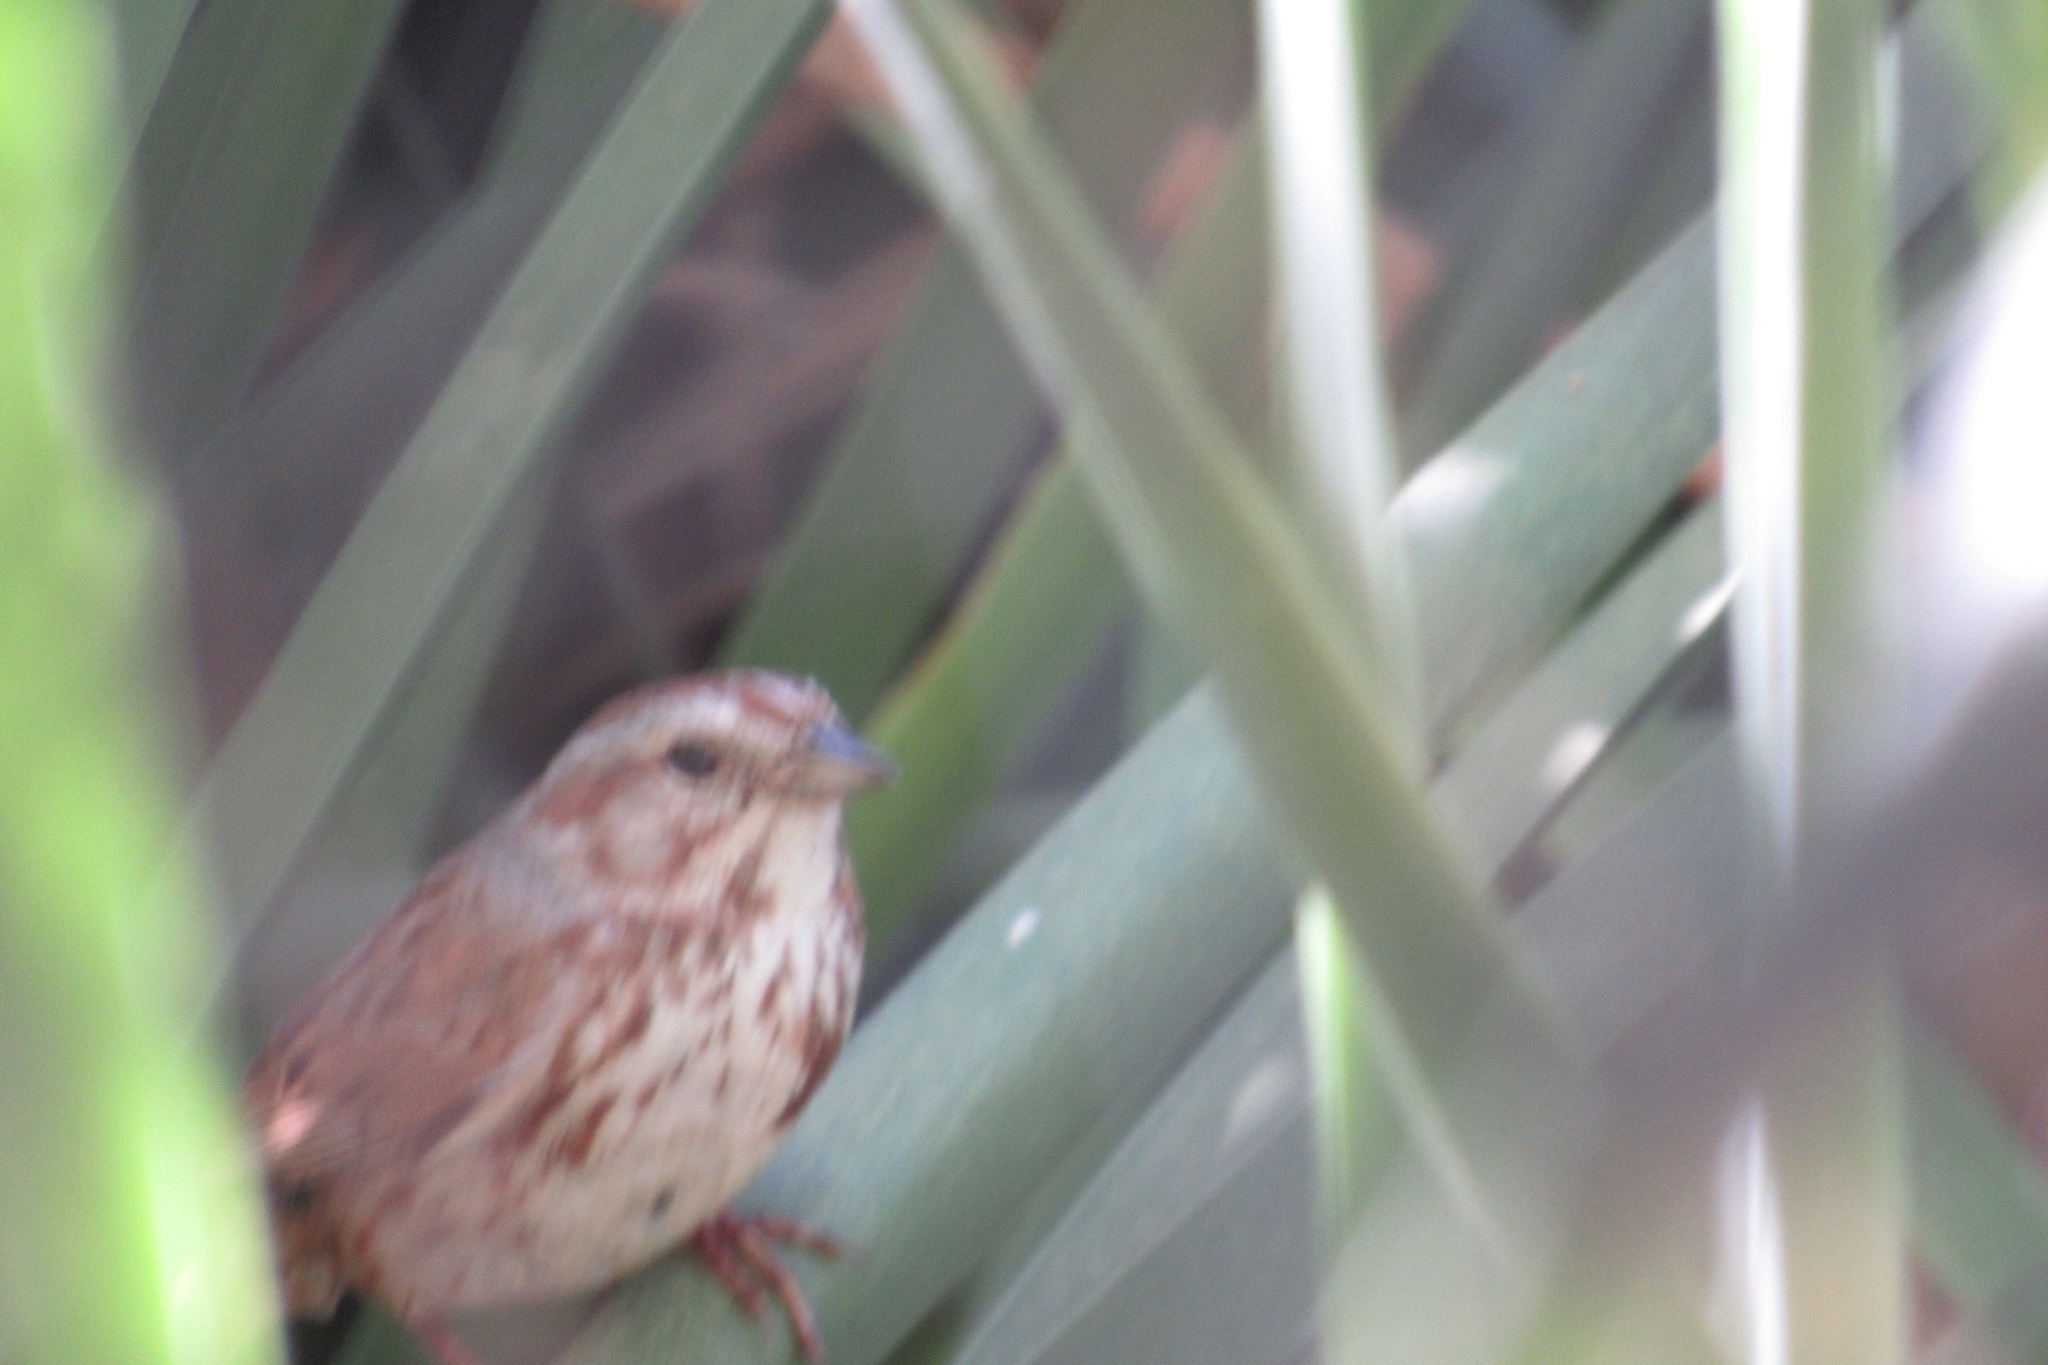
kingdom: Animalia
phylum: Chordata
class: Aves
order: Passeriformes
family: Passerellidae
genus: Melospiza
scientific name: Melospiza melodia
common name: Song sparrow
